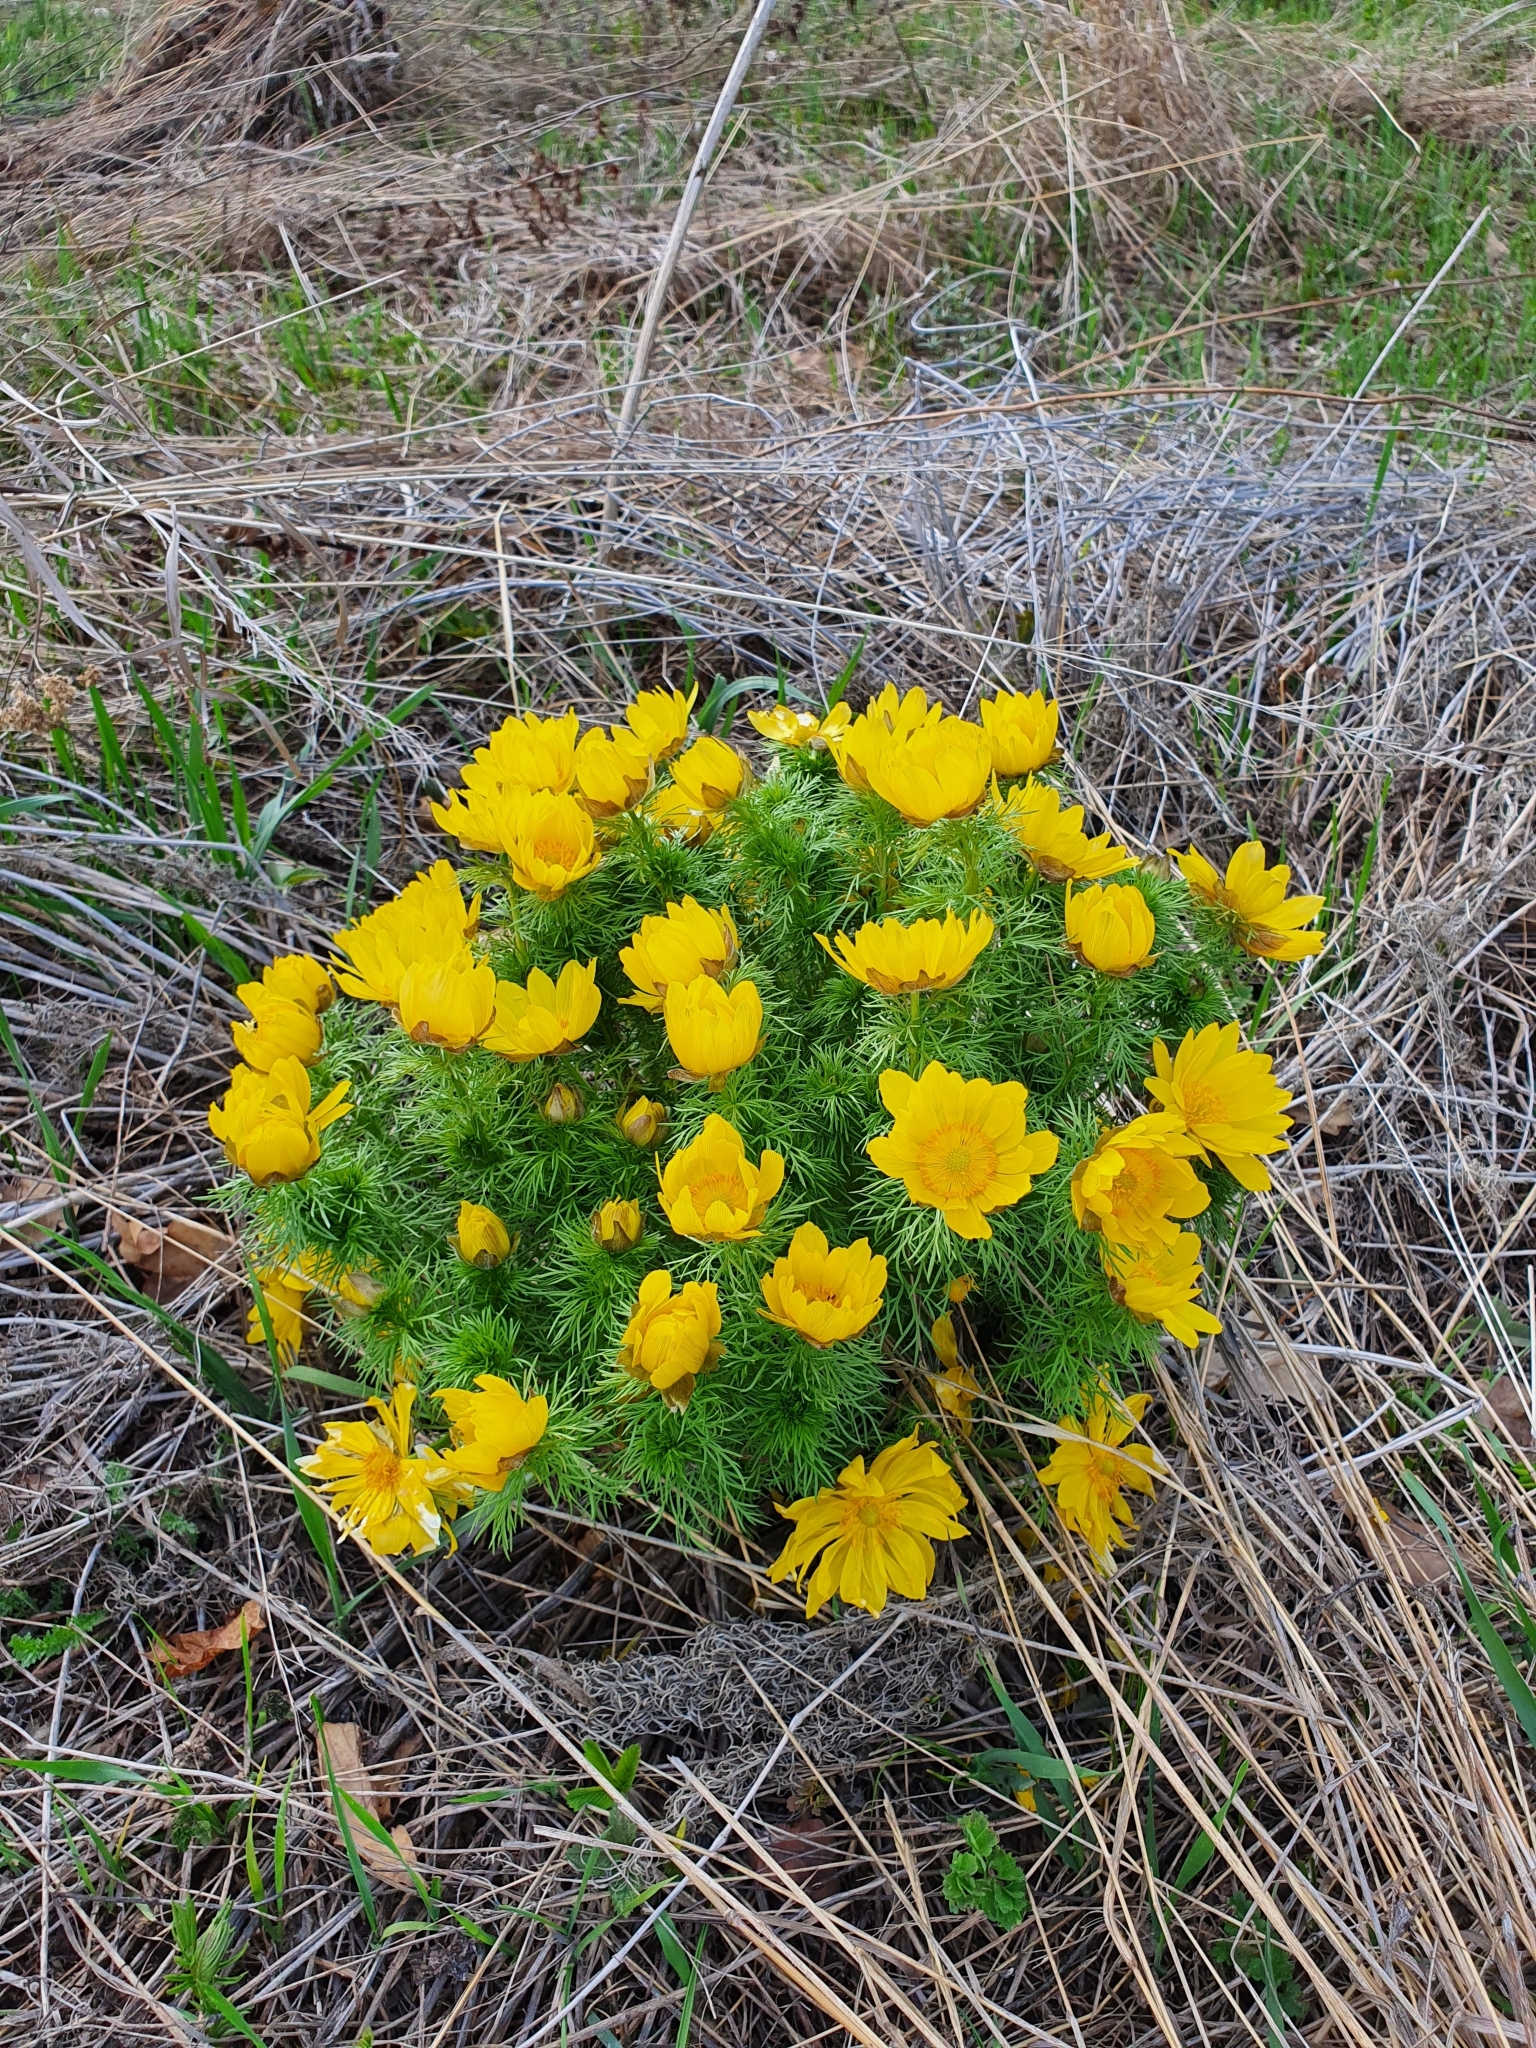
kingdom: Plantae
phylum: Tracheophyta
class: Magnoliopsida
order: Ranunculales
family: Ranunculaceae
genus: Adonis
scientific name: Adonis vernalis
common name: Yellow pheasants-eye
